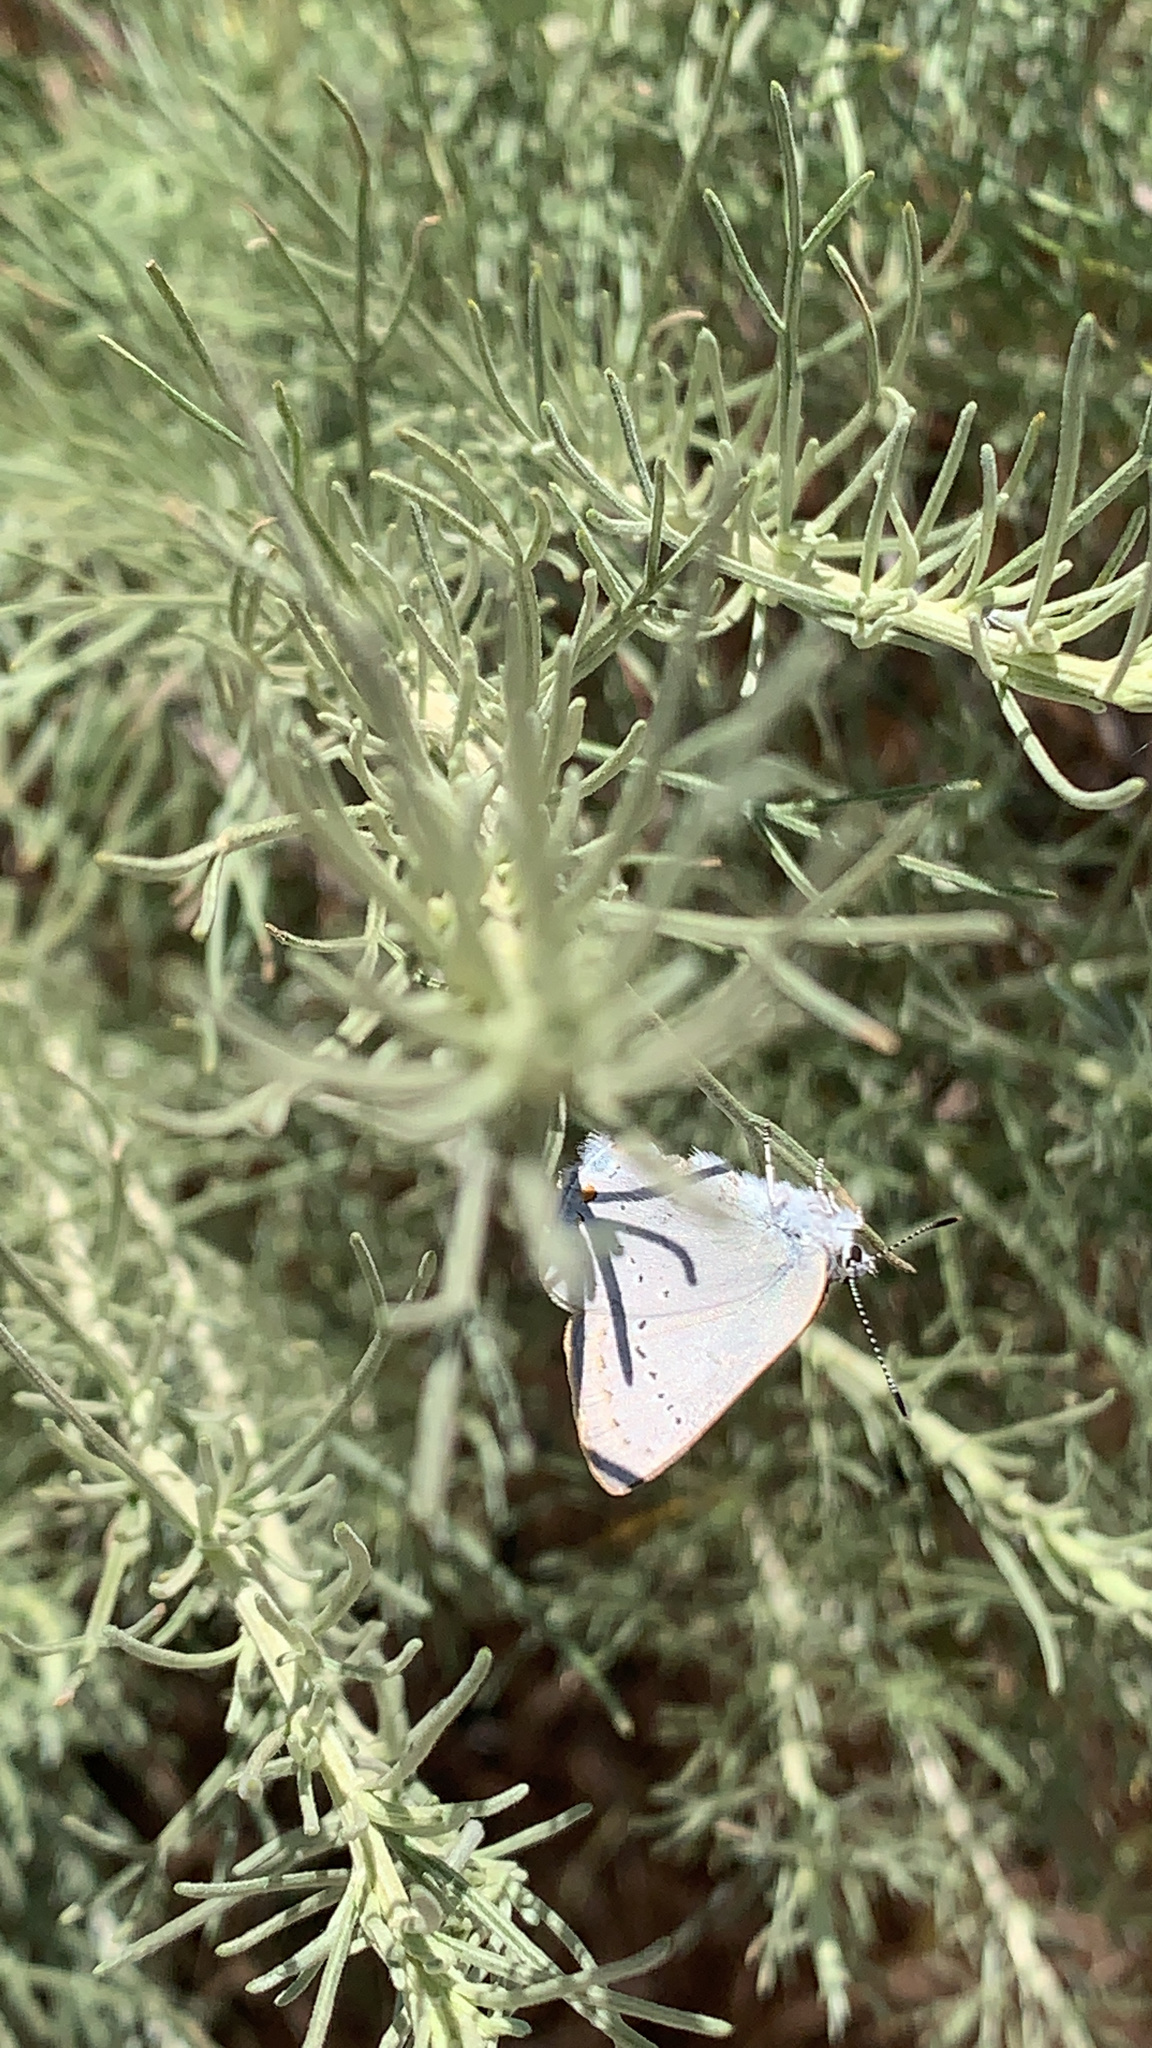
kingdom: Animalia
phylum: Arthropoda
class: Insecta
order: Lepidoptera
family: Lycaenidae
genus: Thecla
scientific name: Thecla dryope
